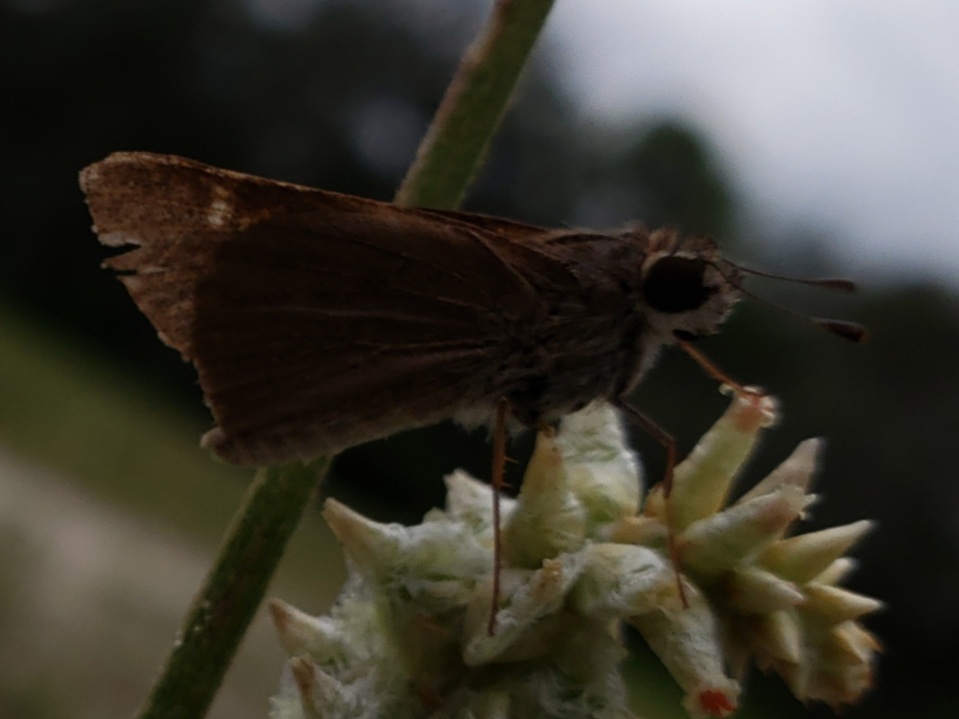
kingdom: Animalia
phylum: Arthropoda
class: Insecta
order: Lepidoptera
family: Hesperiidae
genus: Lerodea
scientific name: Lerodea eufala
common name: Eufala skipper
